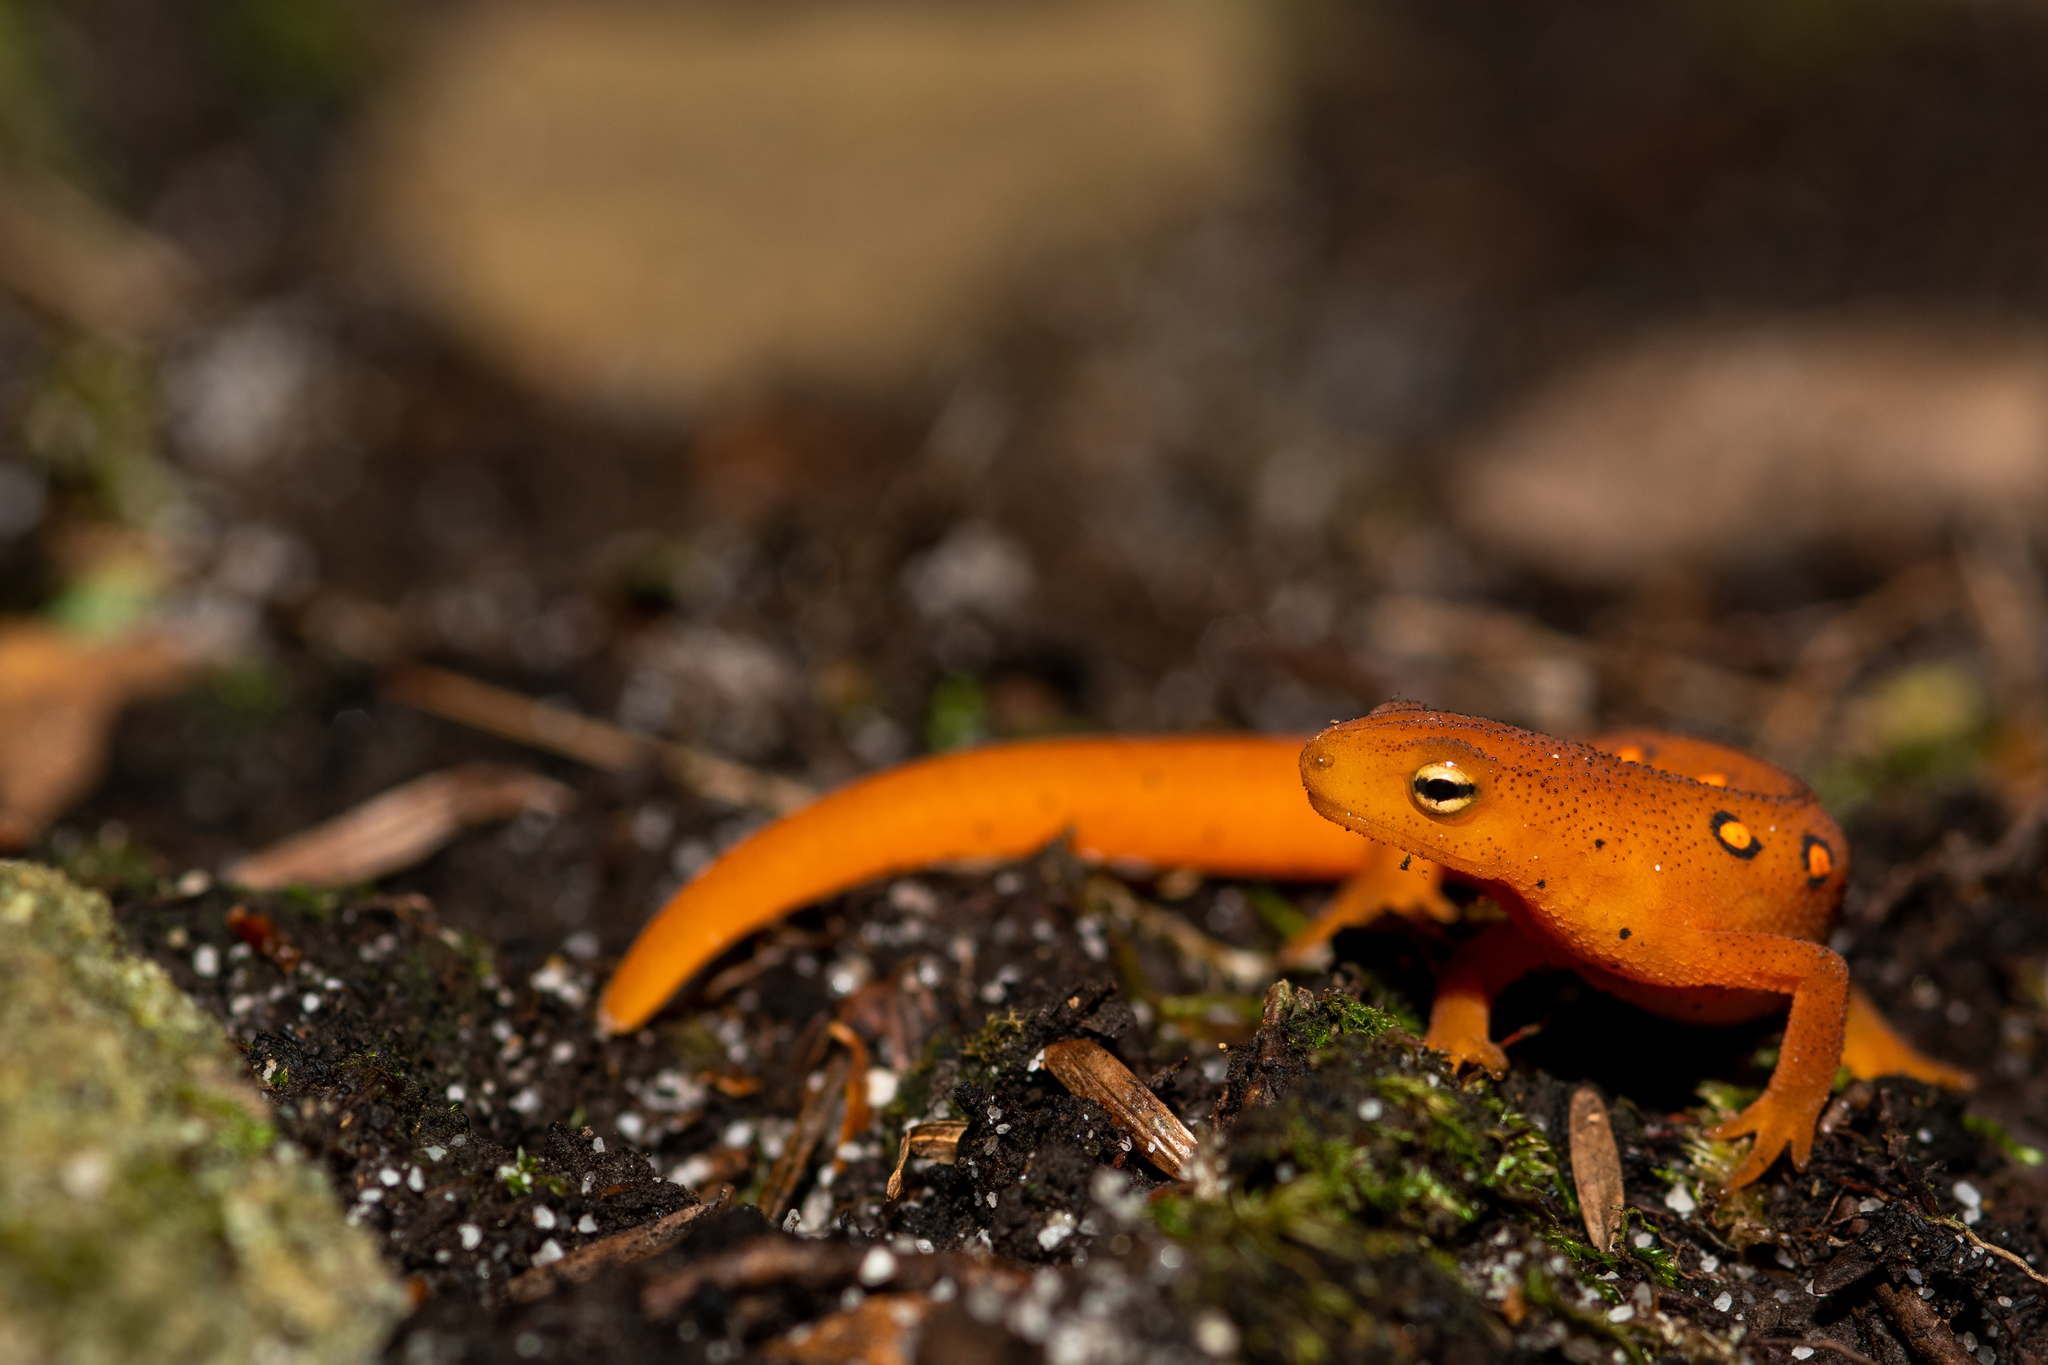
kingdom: Animalia
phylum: Chordata
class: Amphibia
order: Caudata
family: Salamandridae
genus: Notophthalmus
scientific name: Notophthalmus viridescens
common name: Eastern newt
